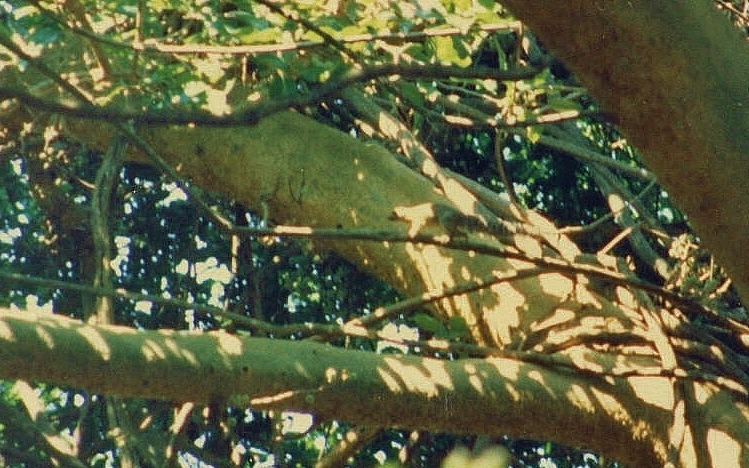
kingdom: Animalia
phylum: Chordata
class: Mammalia
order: Rodentia
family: Sciuridae
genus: Heliosciurus
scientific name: Heliosciurus mutabilis
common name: Mutable sun squirrel
